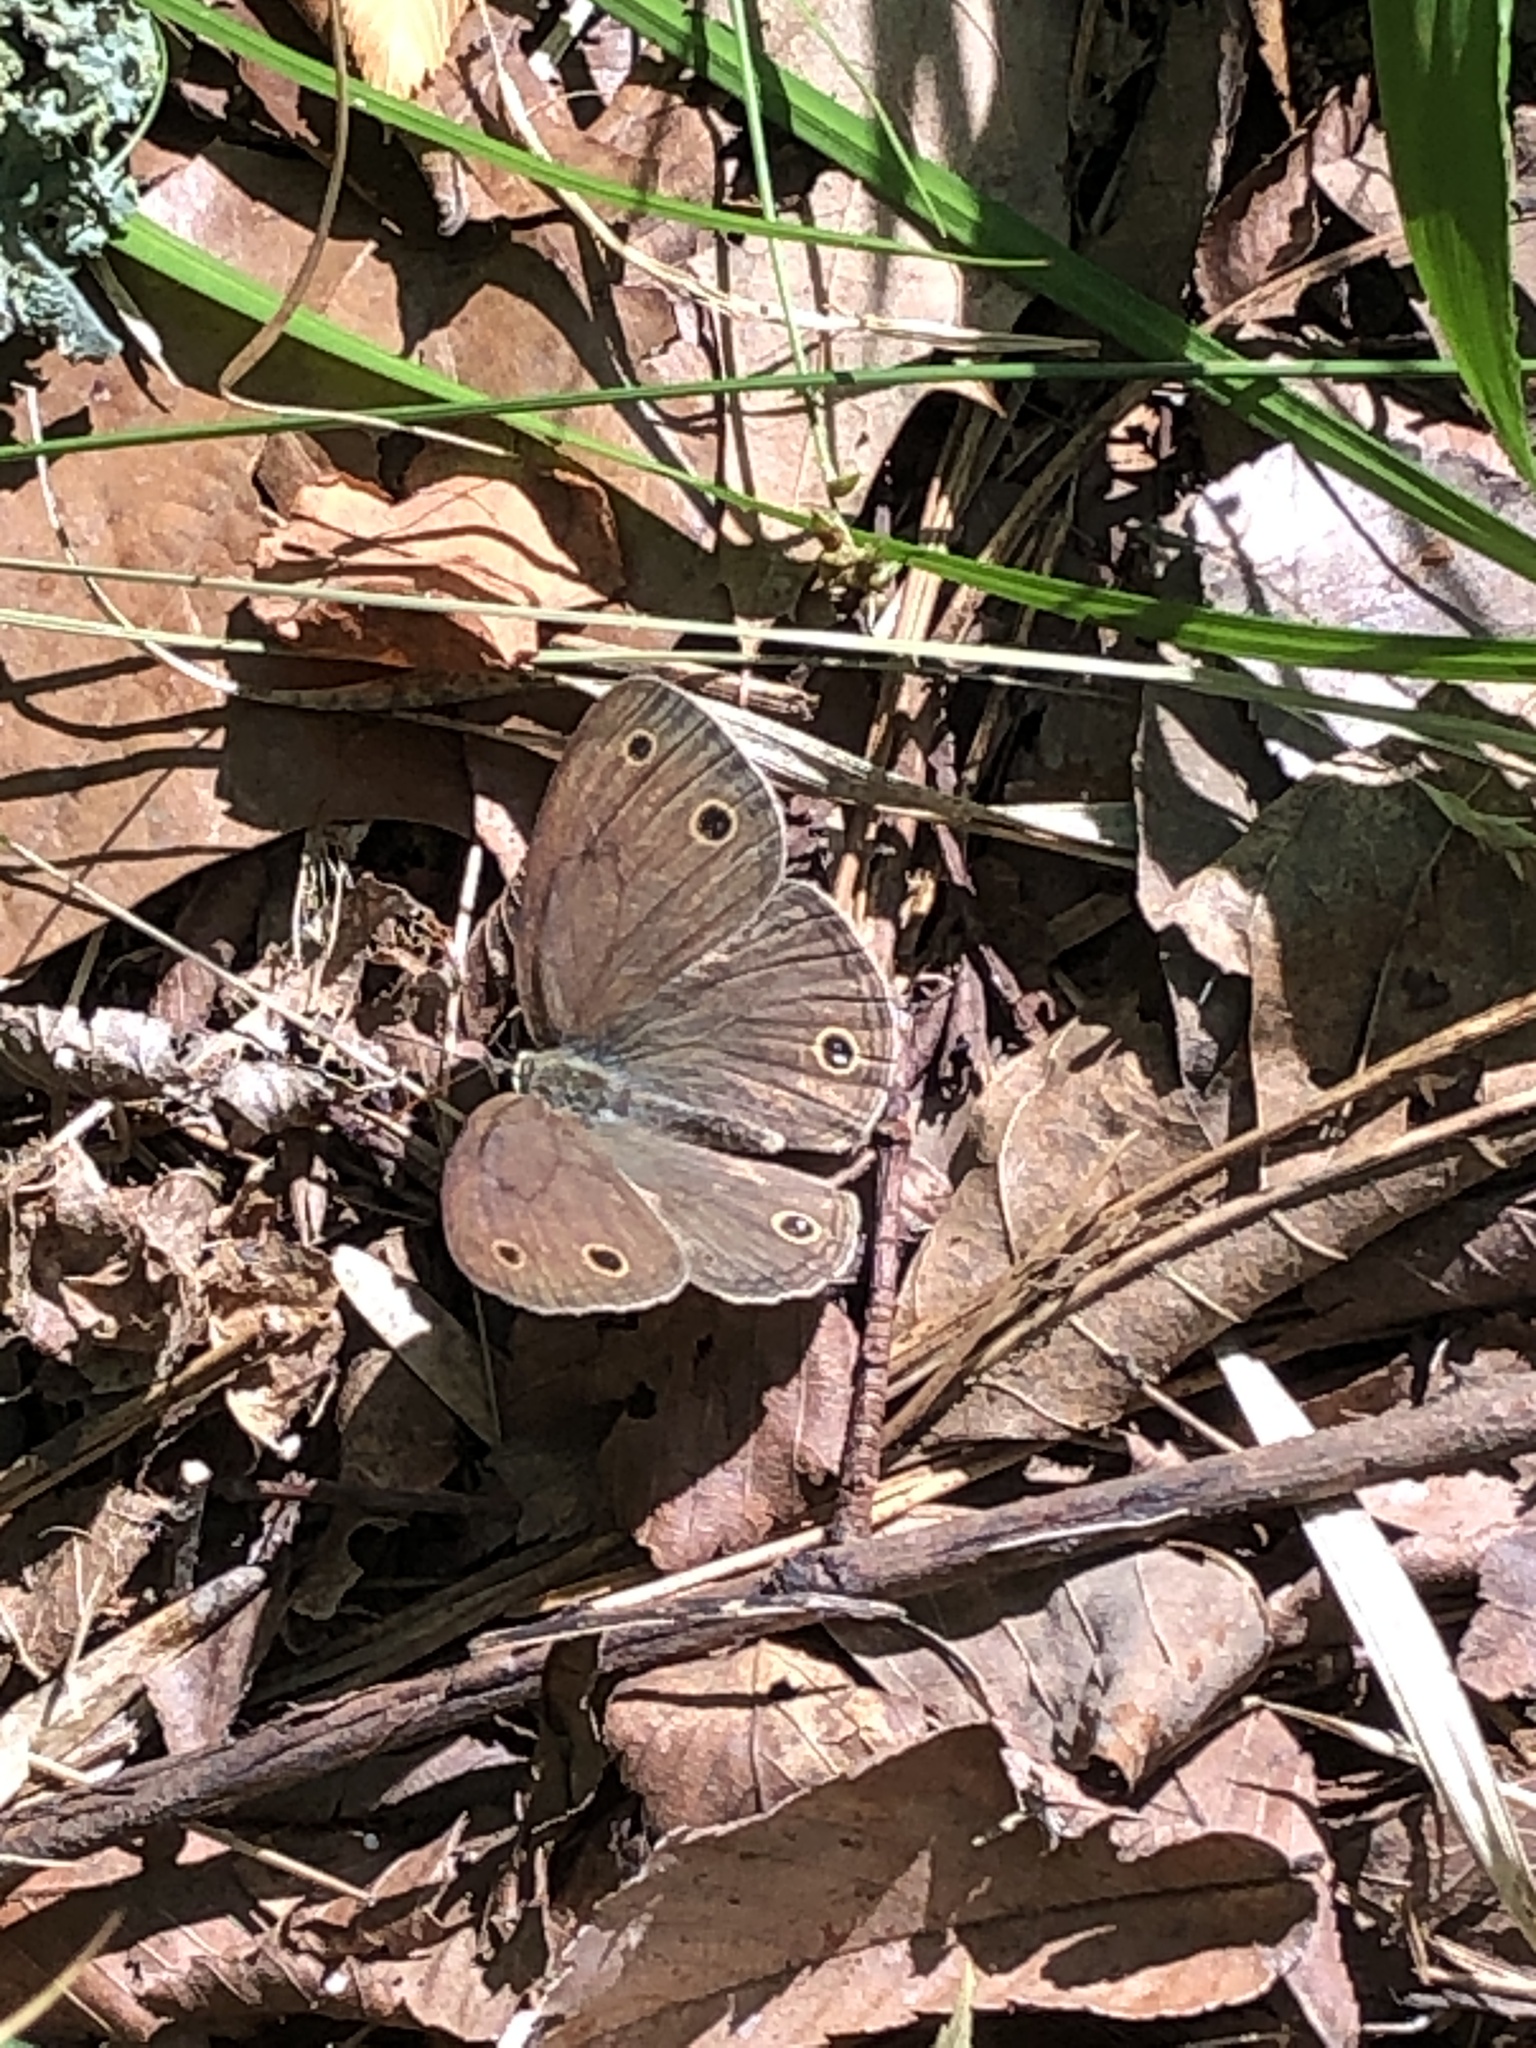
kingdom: Animalia
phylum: Arthropoda
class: Insecta
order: Lepidoptera
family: Nymphalidae
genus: Euptychia
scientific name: Euptychia cymela
